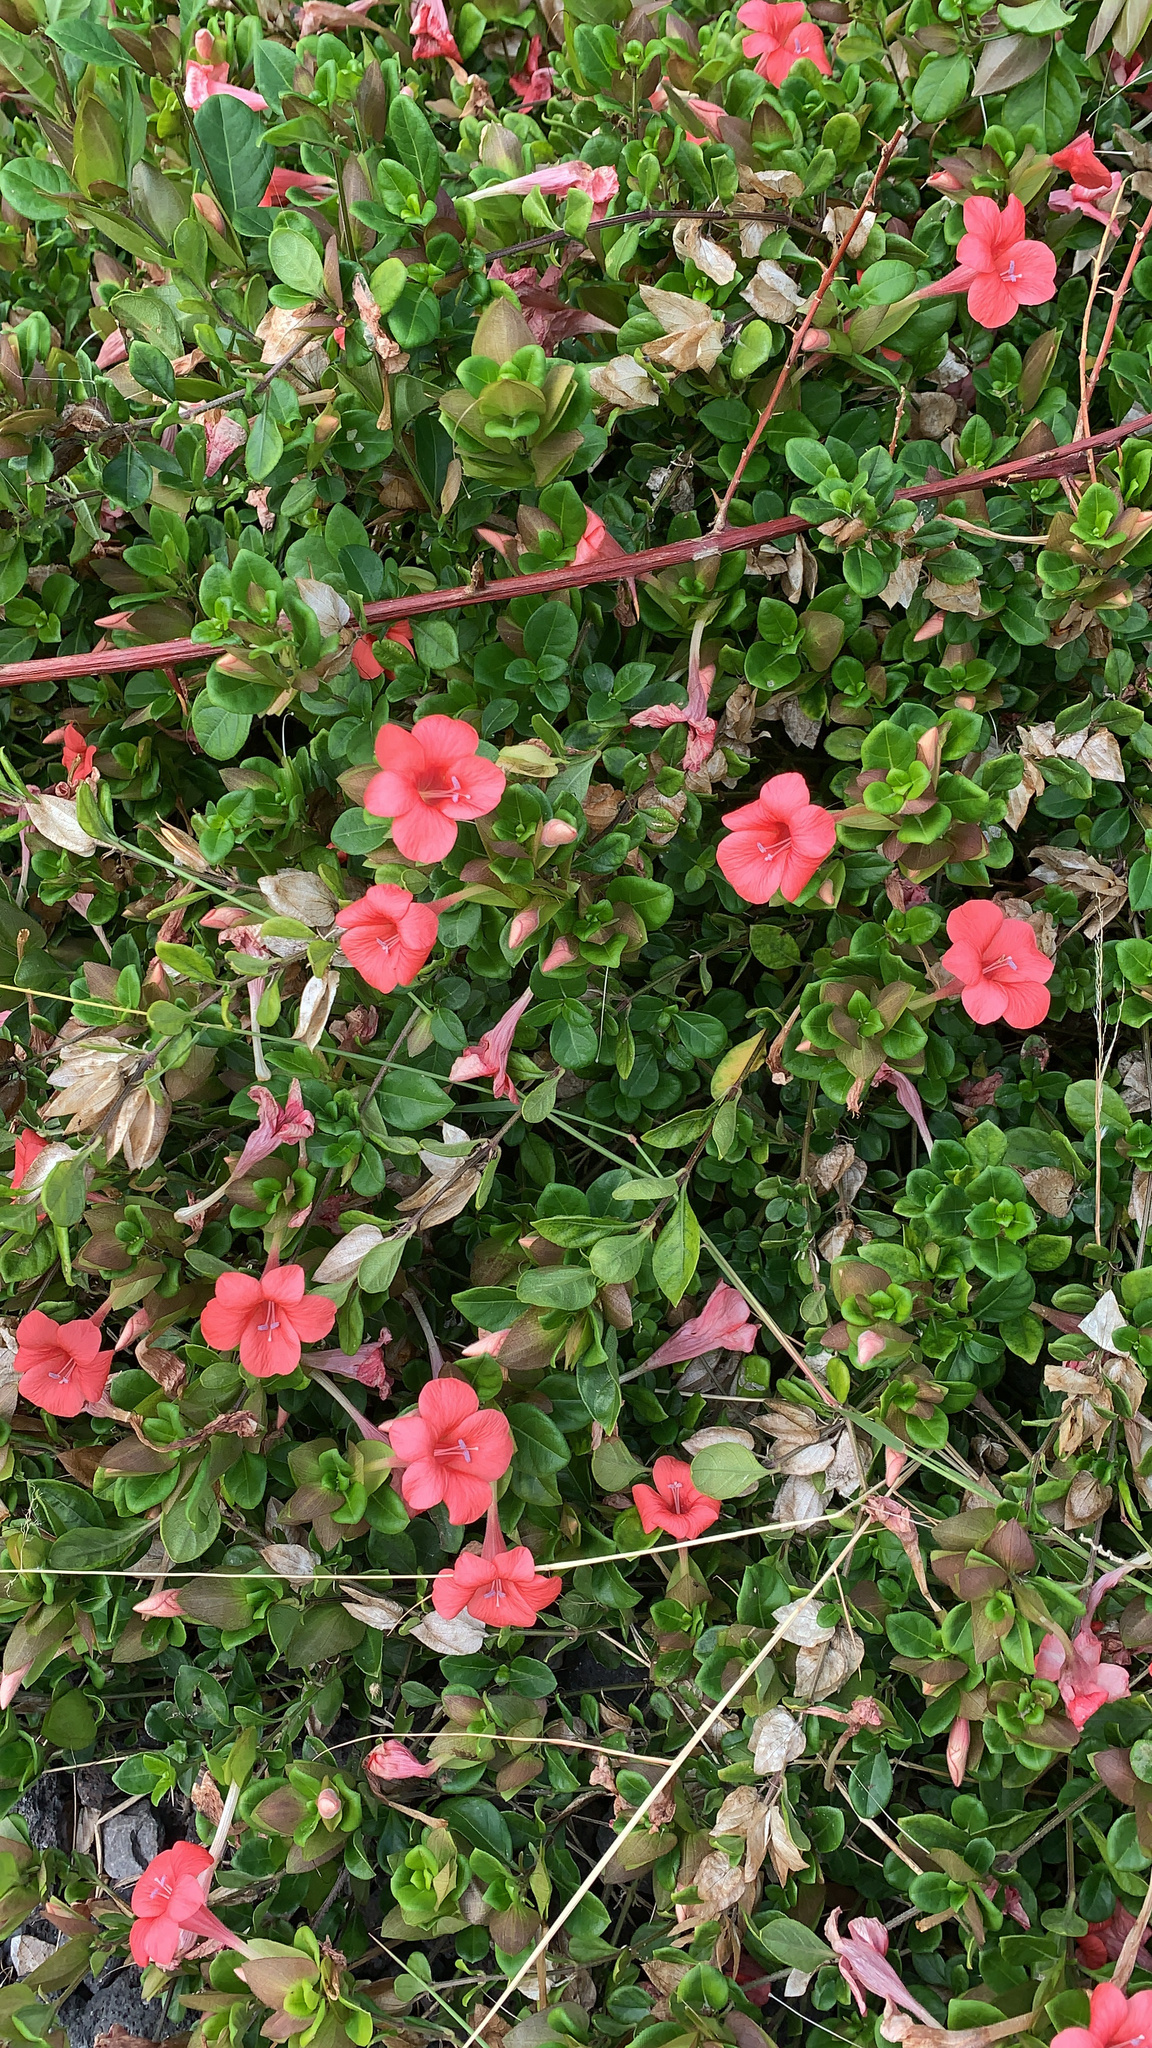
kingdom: Plantae
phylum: Tracheophyta
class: Magnoliopsida
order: Lamiales
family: Acanthaceae
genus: Barleria
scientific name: Barleria repens
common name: Pink-ruellia
